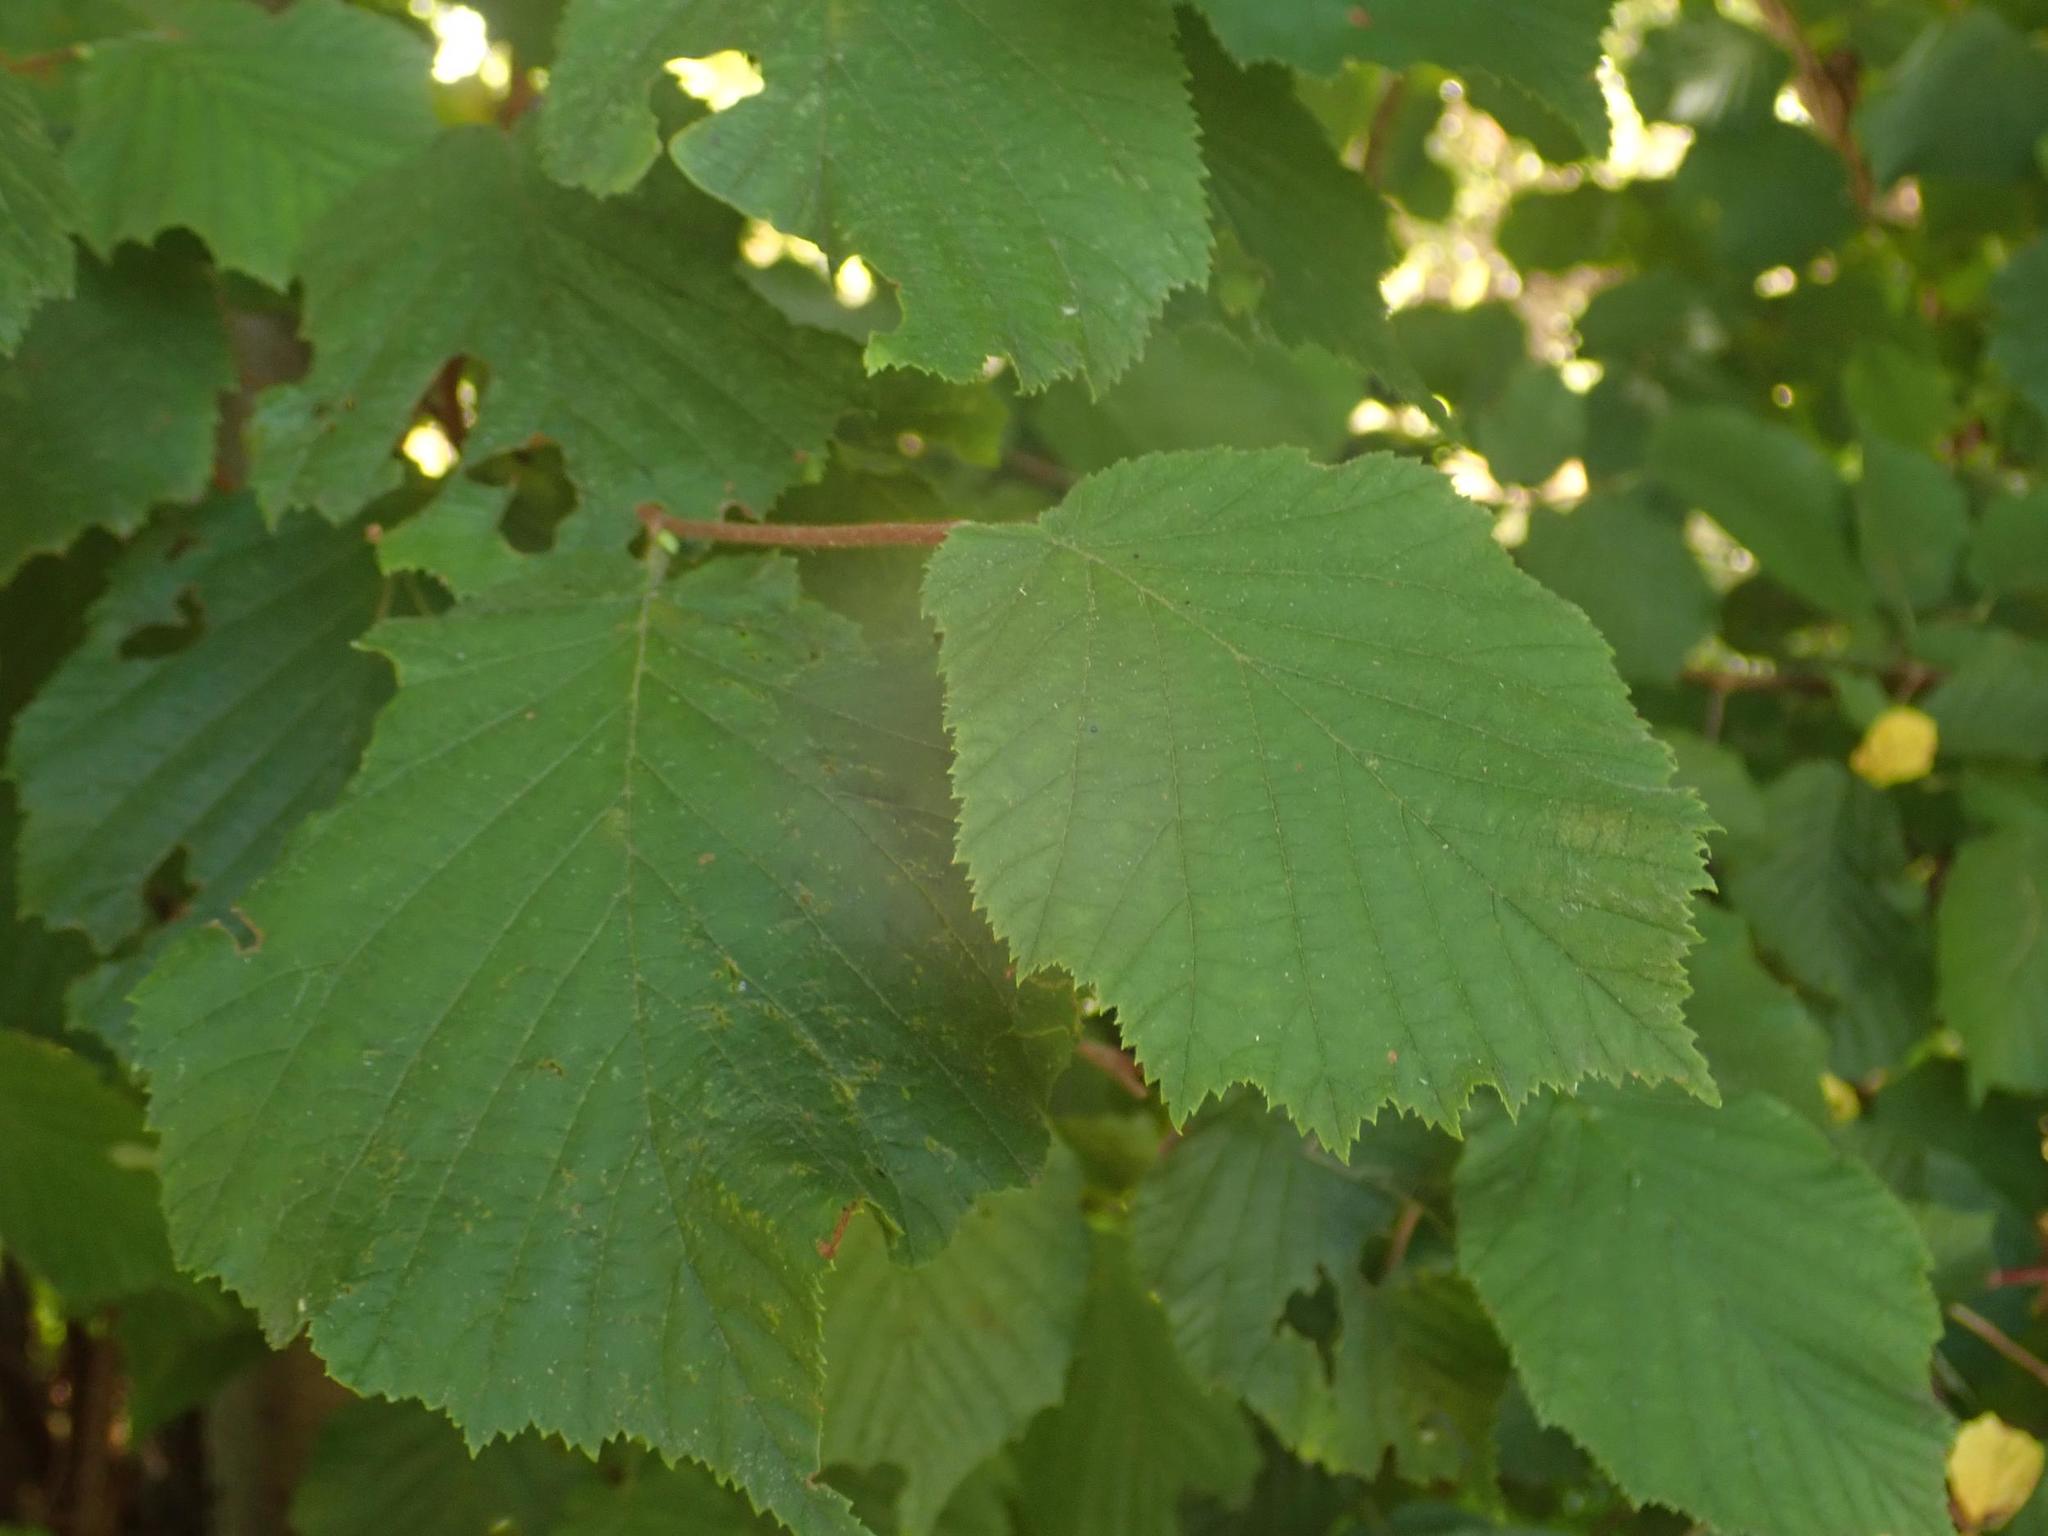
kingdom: Plantae
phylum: Tracheophyta
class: Magnoliopsida
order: Fagales
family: Betulaceae
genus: Corylus
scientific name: Corylus avellana
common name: European hazel
